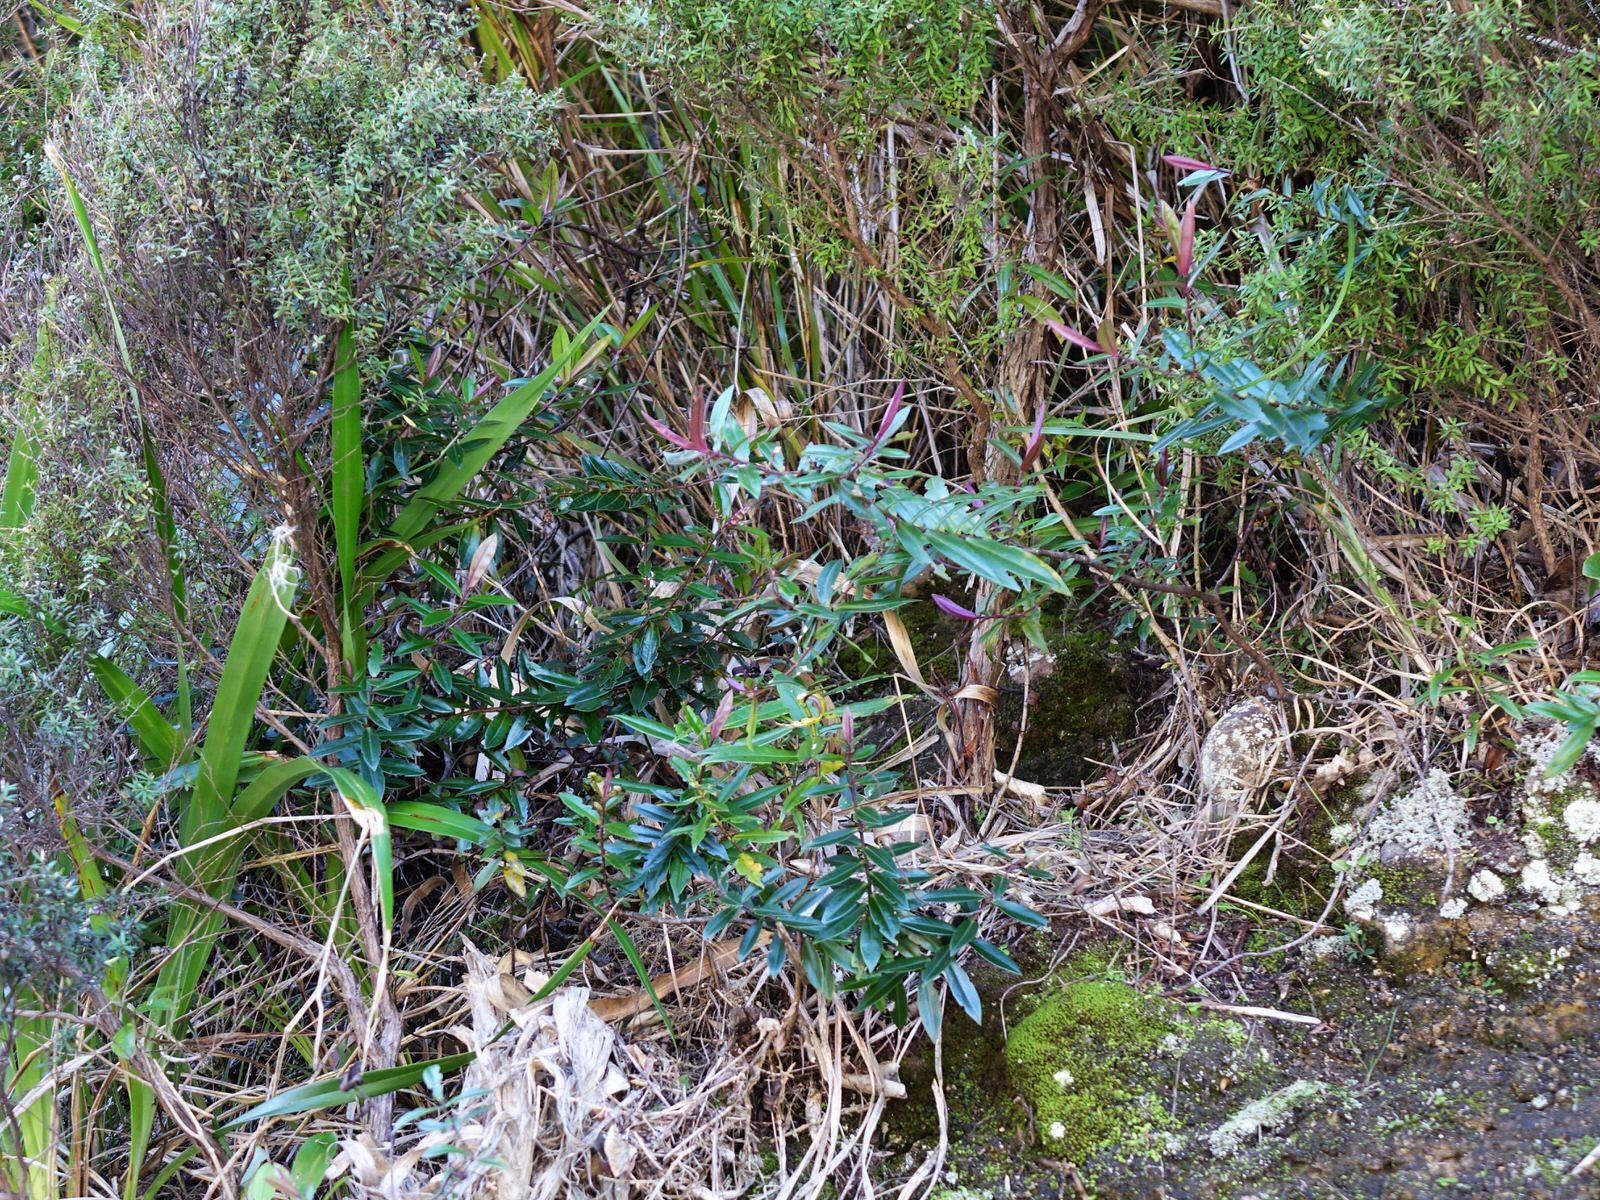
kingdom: Plantae
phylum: Tracheophyta
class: Magnoliopsida
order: Lamiales
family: Plantaginaceae
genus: Veronica
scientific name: Veronica bishopiana
